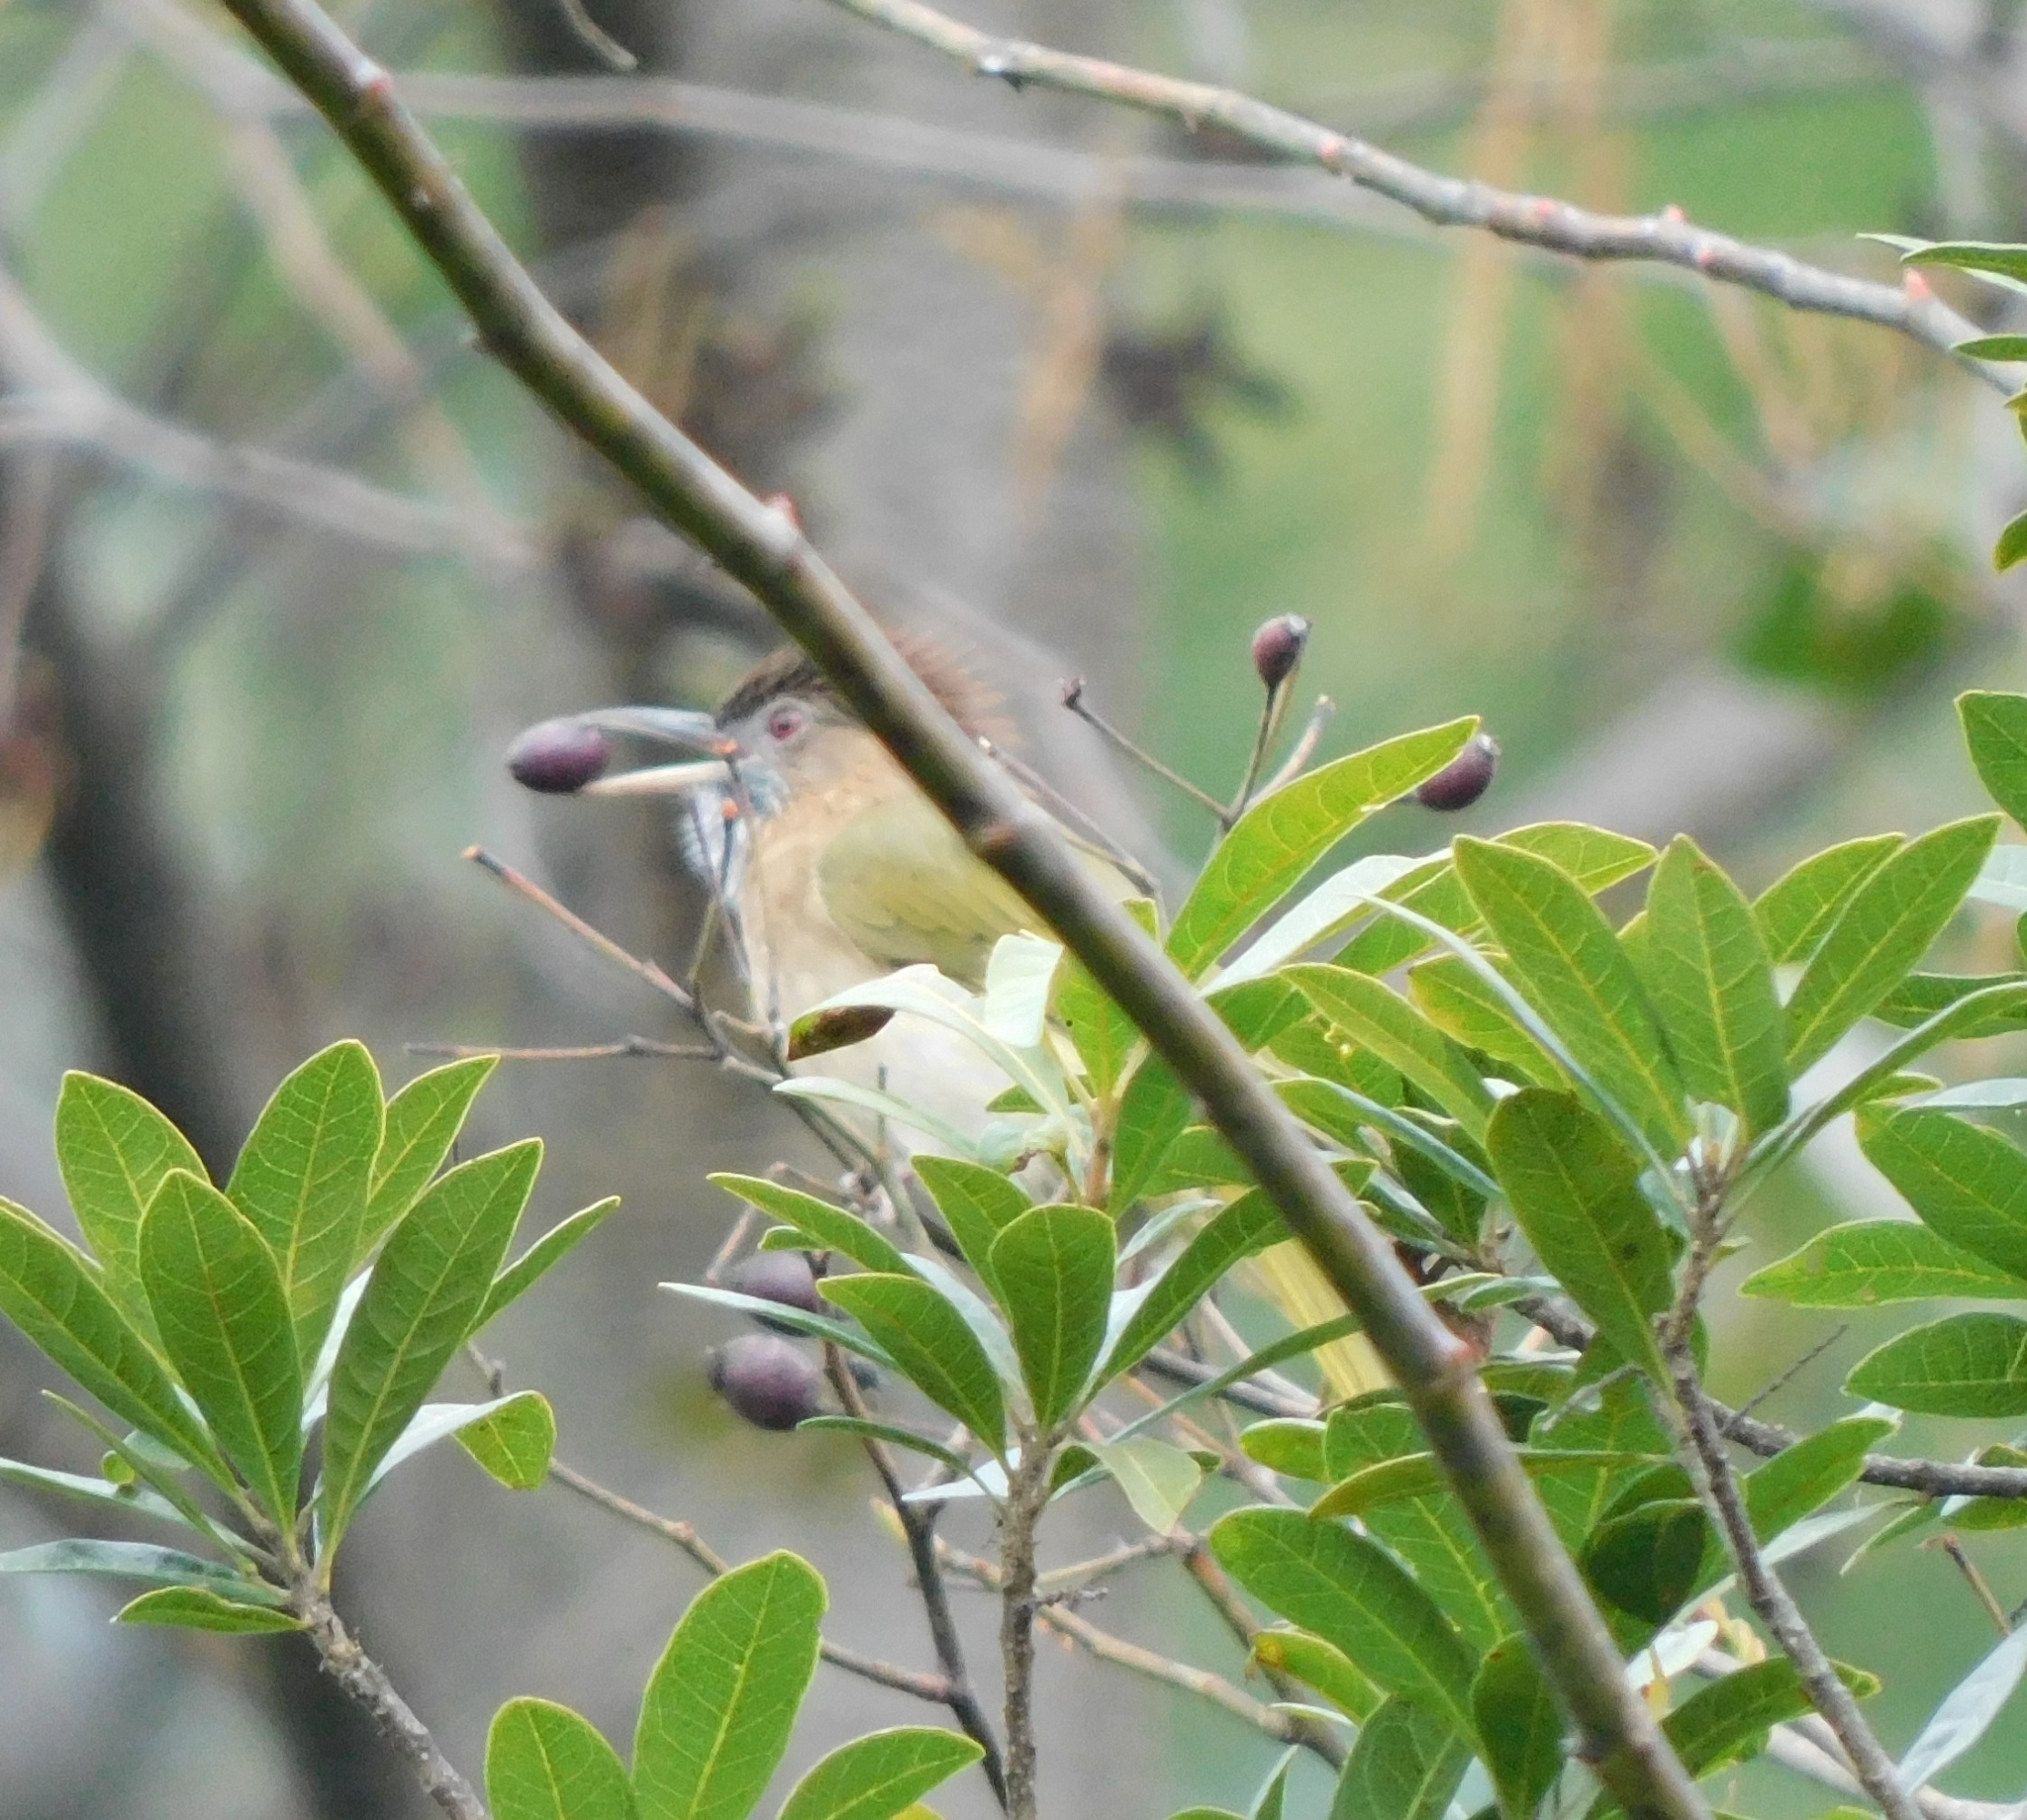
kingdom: Animalia
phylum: Chordata
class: Aves
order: Passeriformes
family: Pycnonotidae
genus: Ixos
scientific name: Ixos mcclellandii
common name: Mountain bulbul
